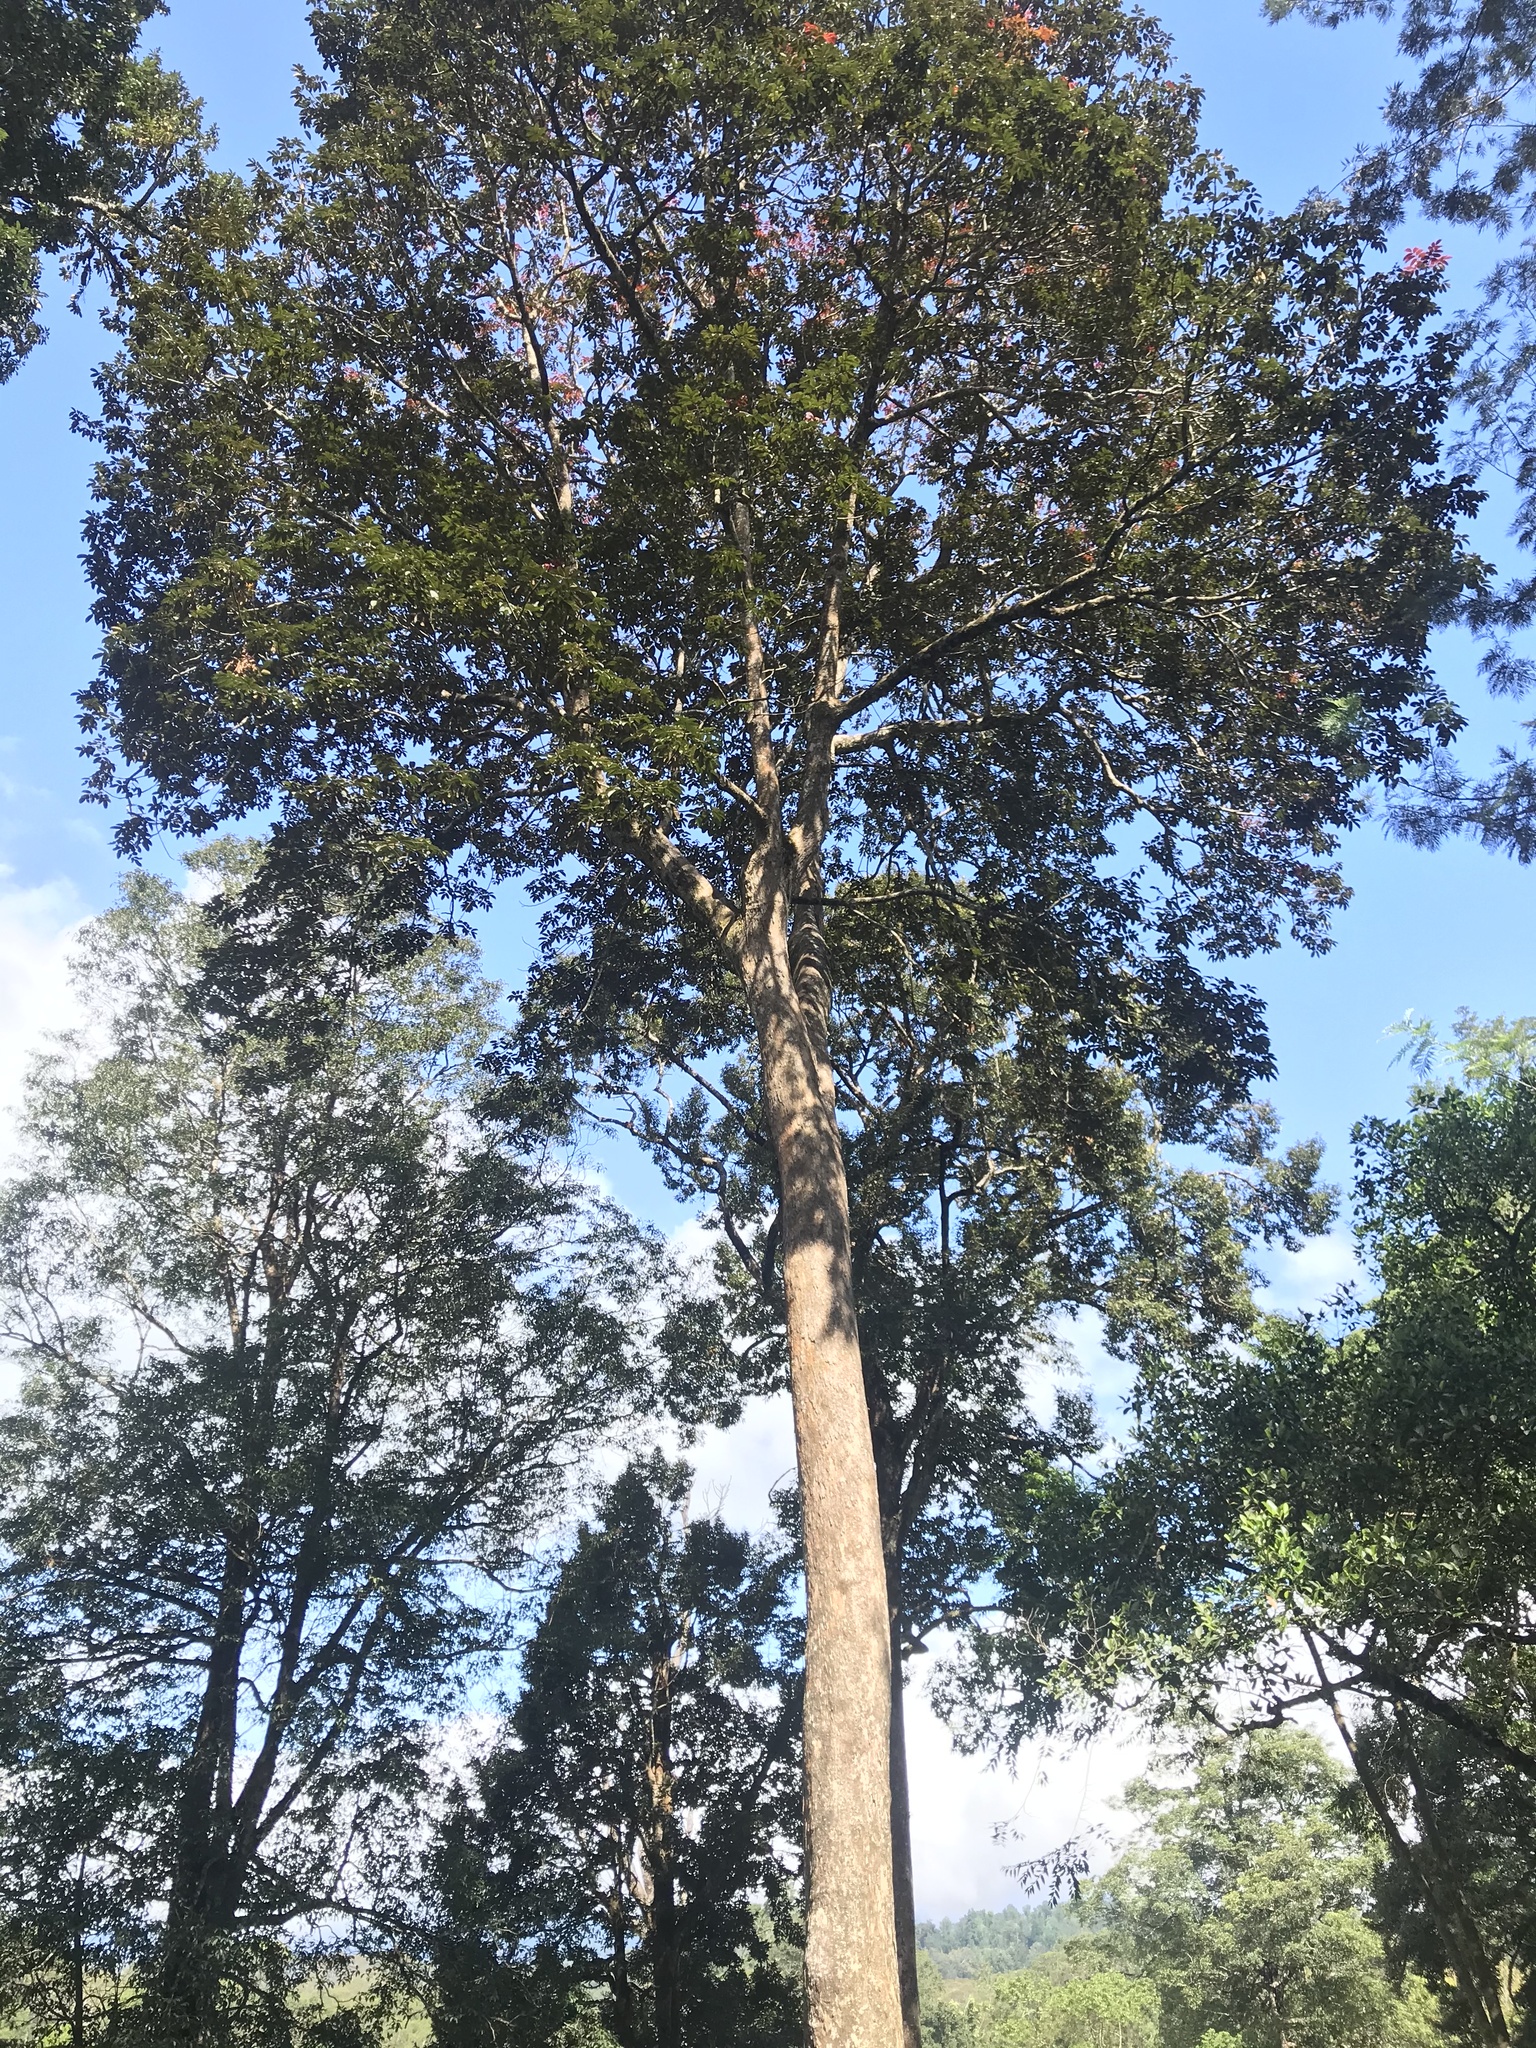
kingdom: Plantae
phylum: Tracheophyta
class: Magnoliopsida
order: Sapindales
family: Burseraceae
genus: Canarium
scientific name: Canarium strictum
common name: Indian white-mahogany
